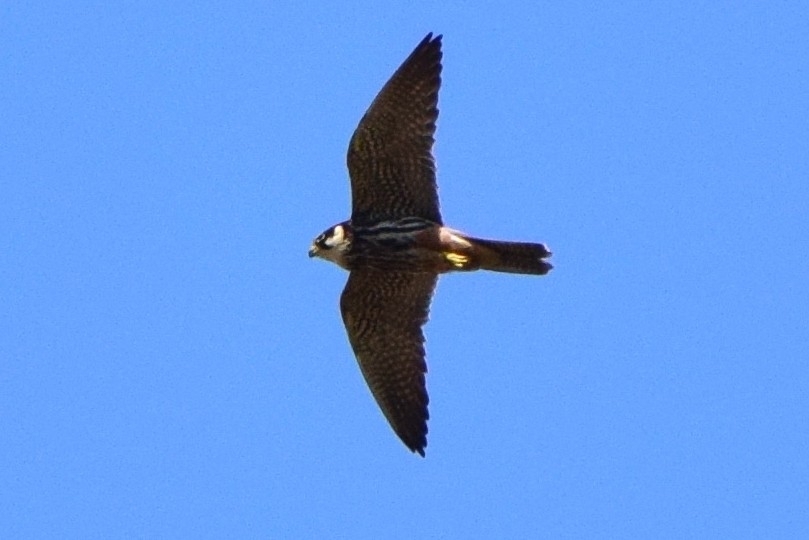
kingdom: Animalia
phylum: Chordata
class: Aves
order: Falconiformes
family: Falconidae
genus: Falco
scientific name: Falco subbuteo
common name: Eurasian hobby
